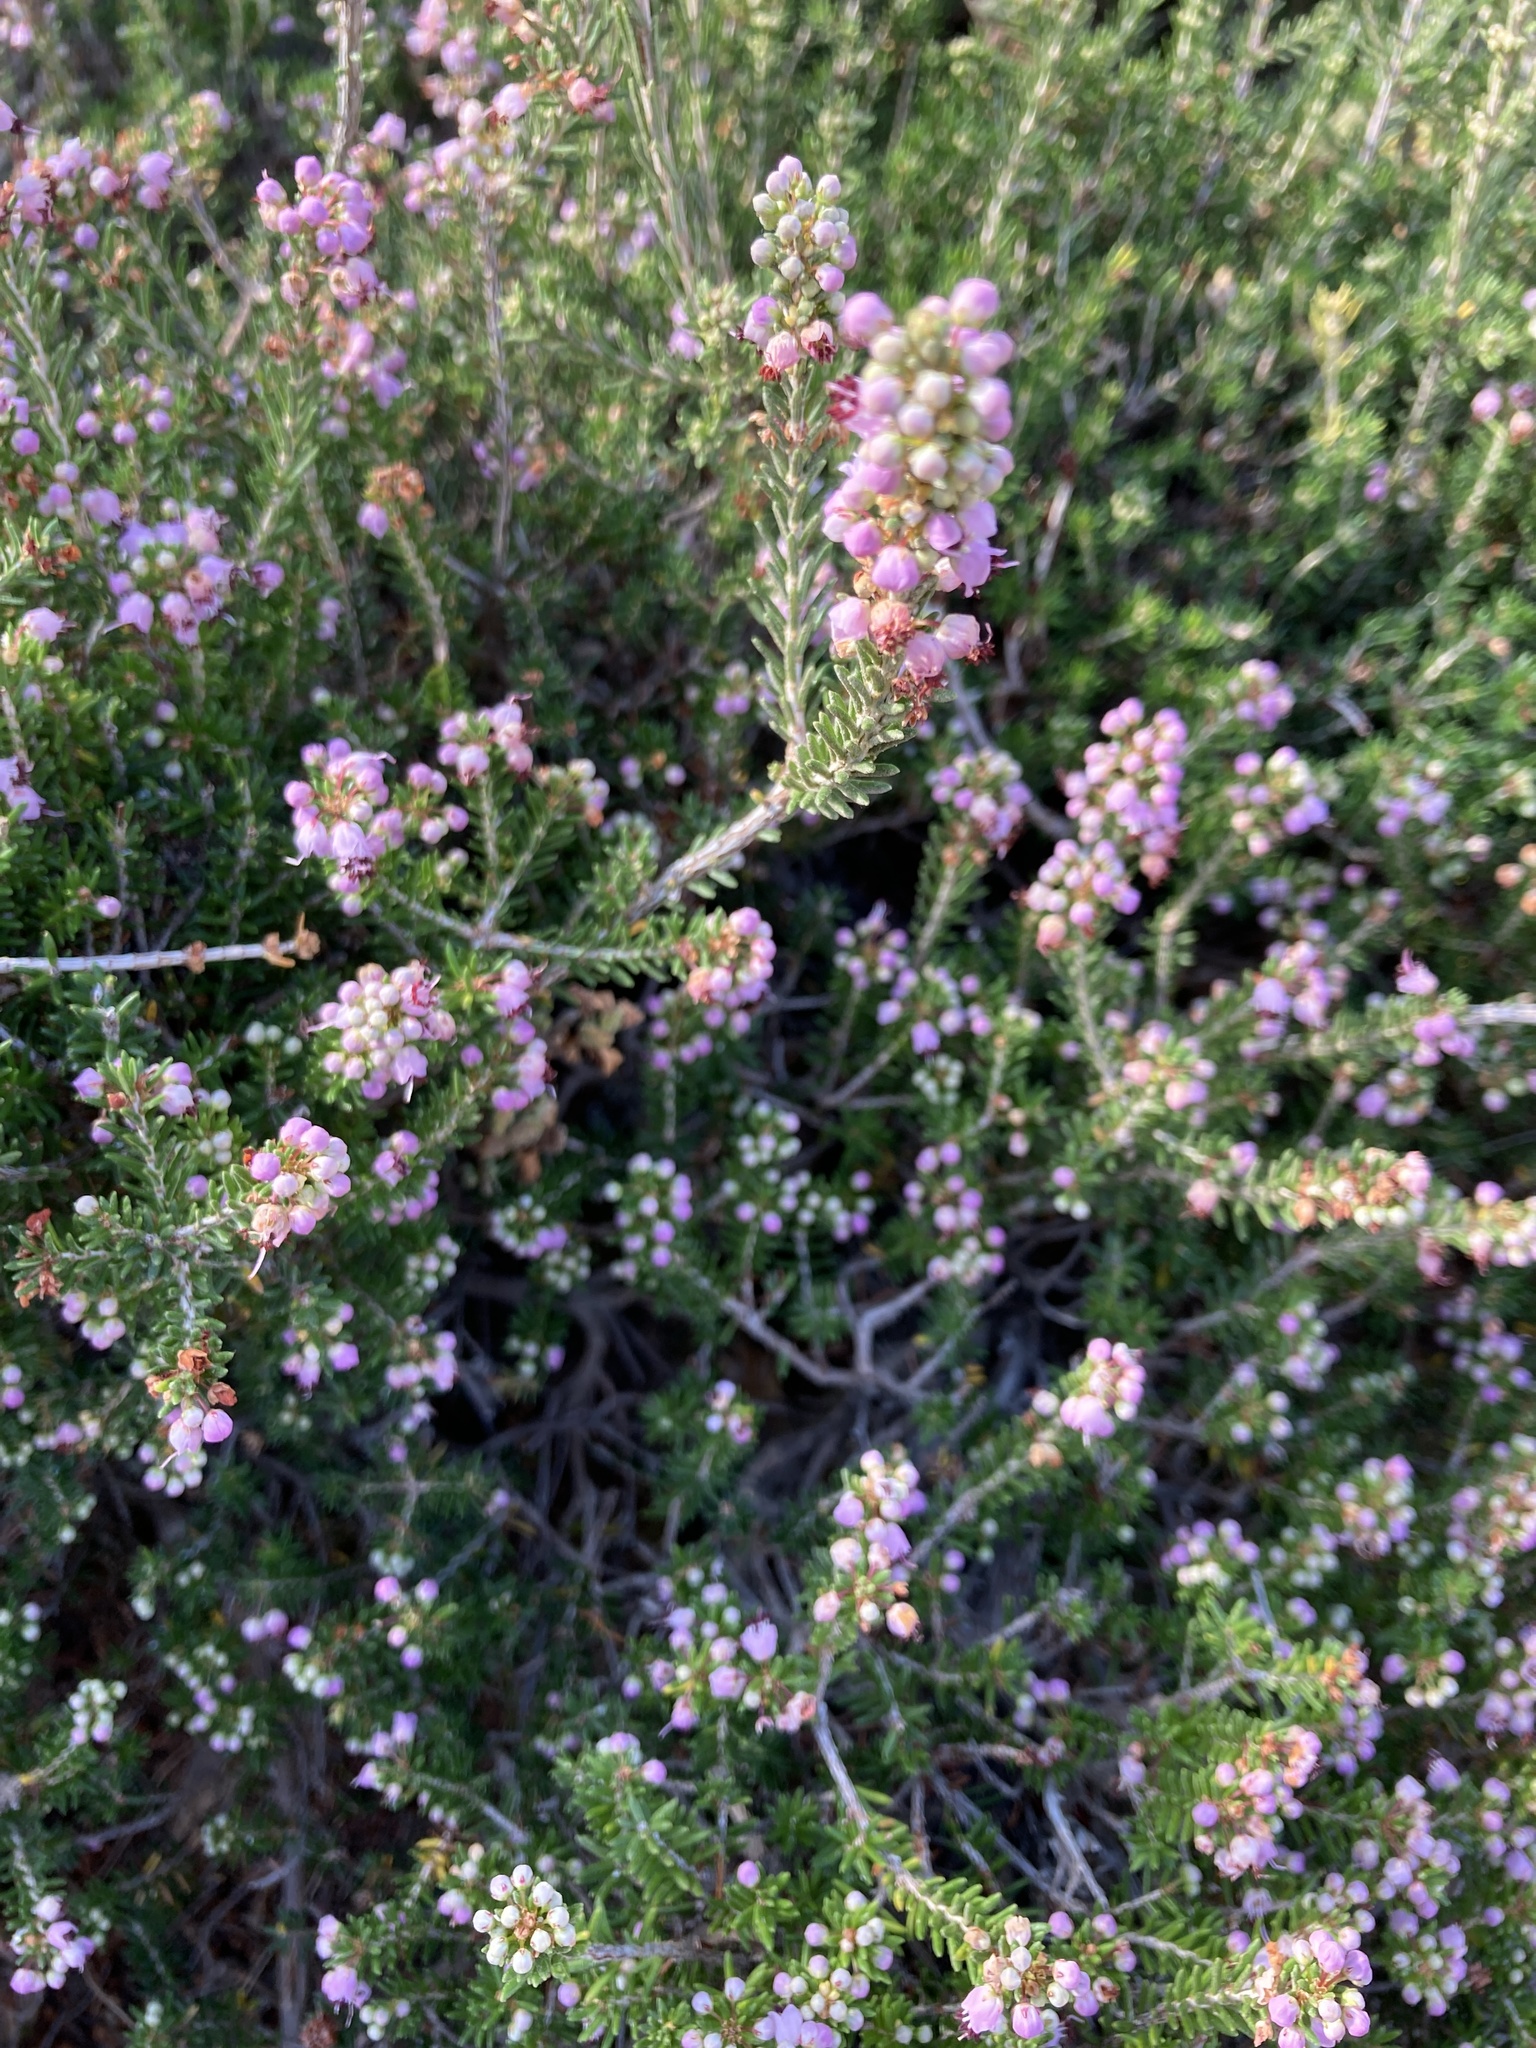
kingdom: Plantae
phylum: Tracheophyta
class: Magnoliopsida
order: Ericales
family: Ericaceae
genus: Erica
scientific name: Erica manipuliflora
